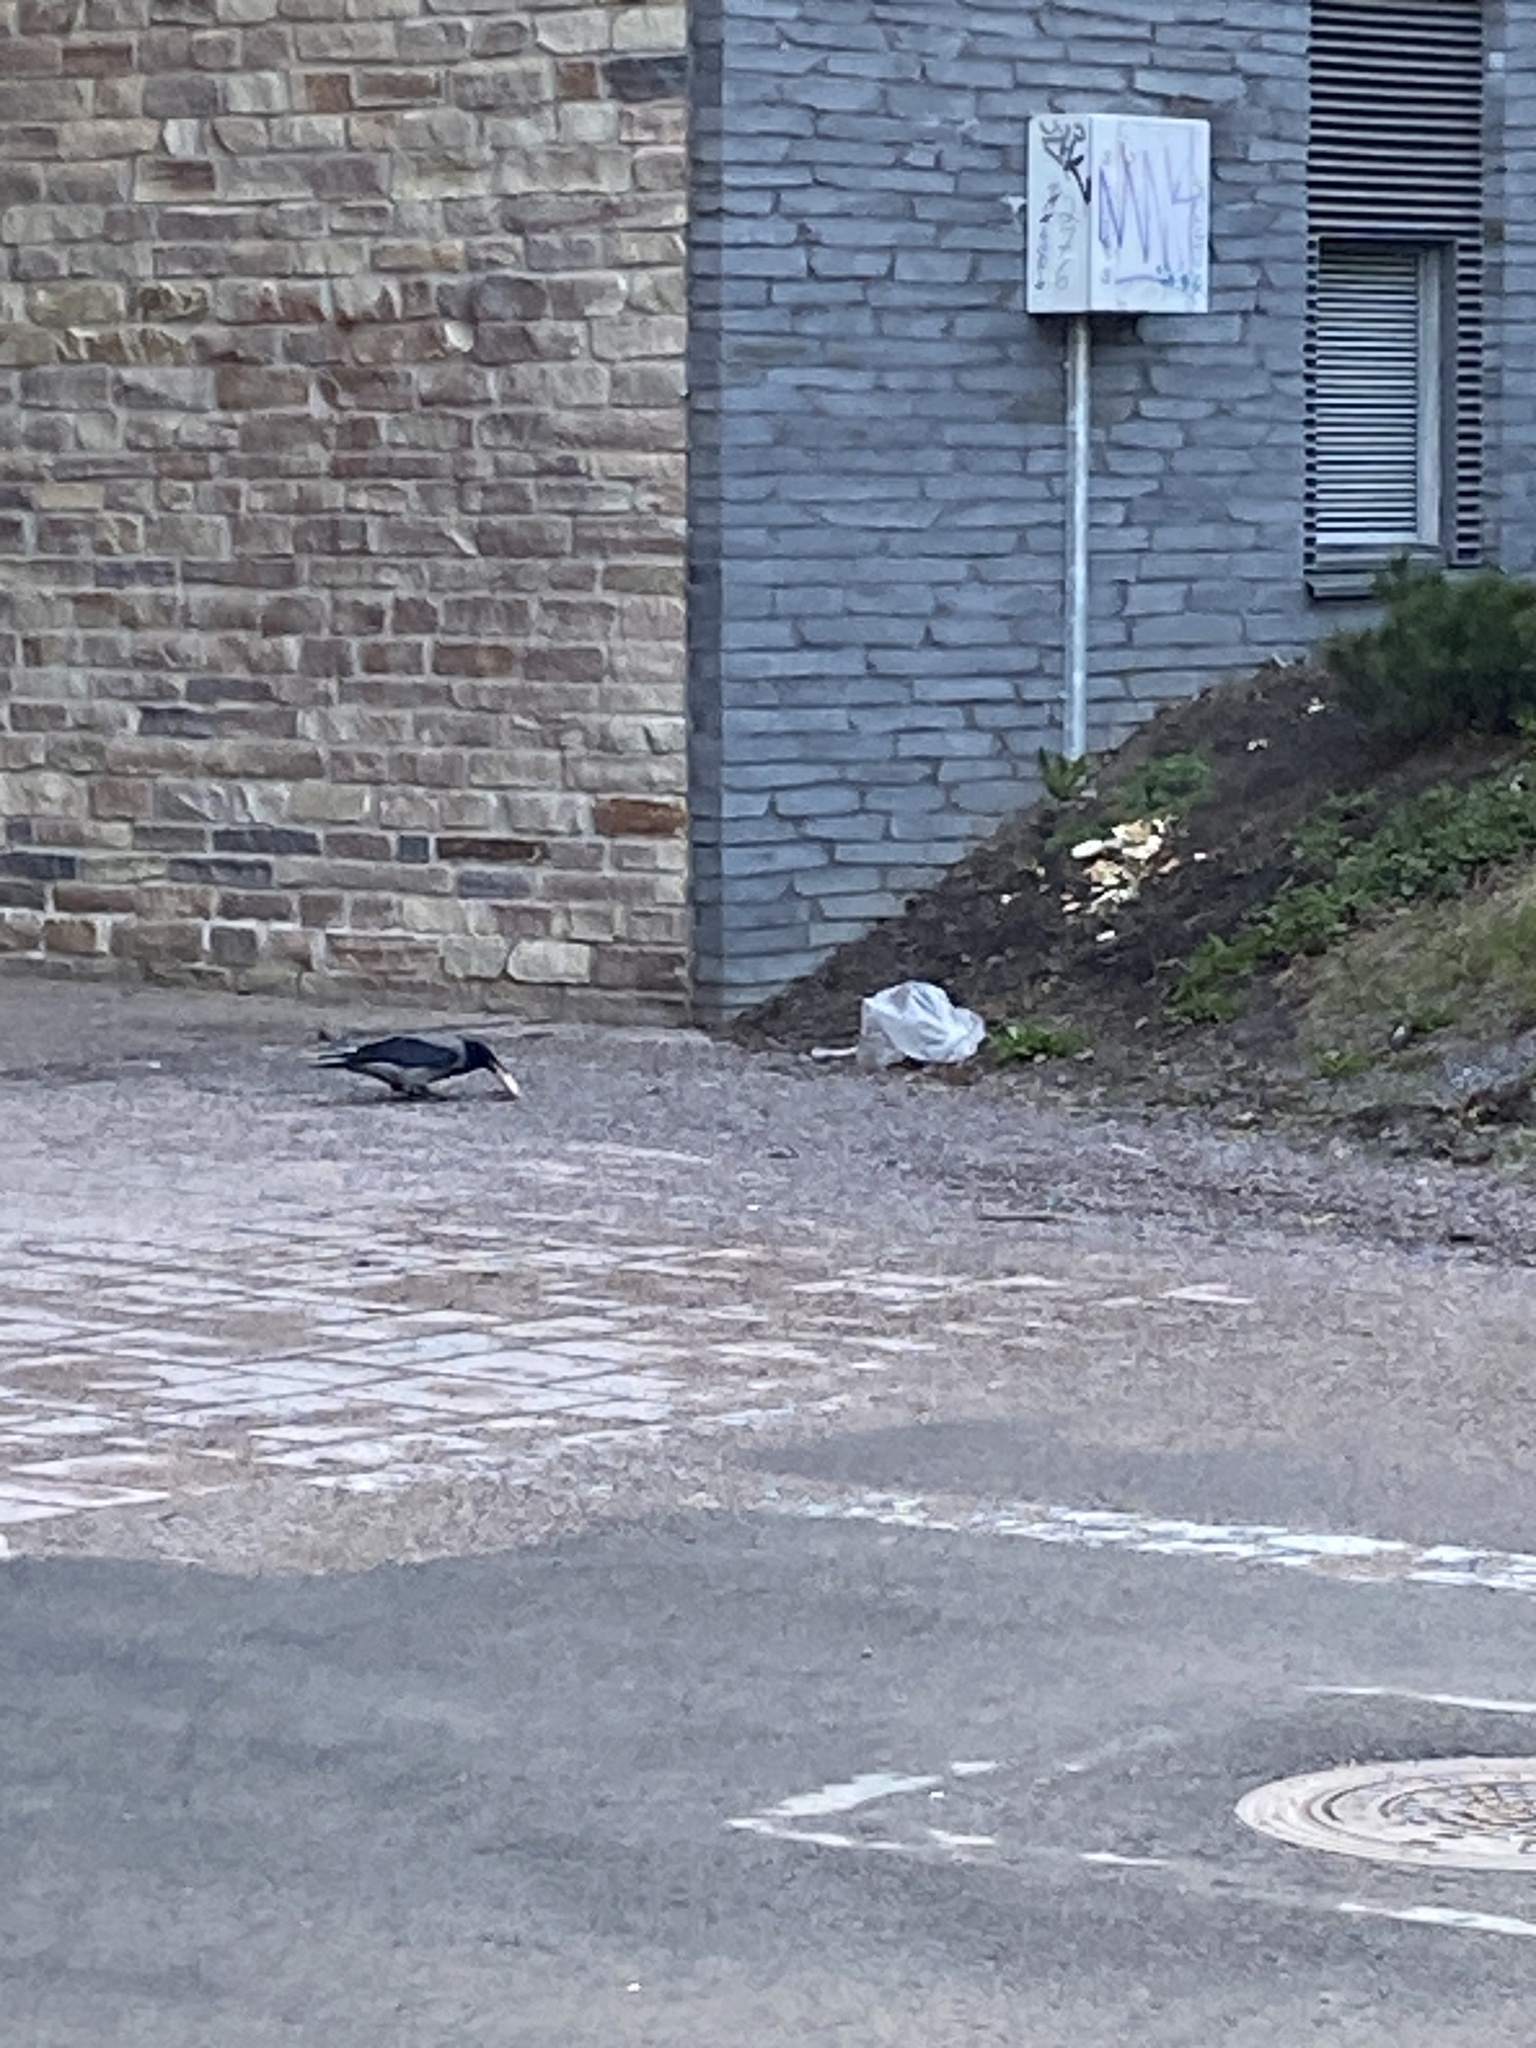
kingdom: Animalia
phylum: Chordata
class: Aves
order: Passeriformes
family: Corvidae
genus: Corvus
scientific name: Corvus cornix
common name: Hooded crow
